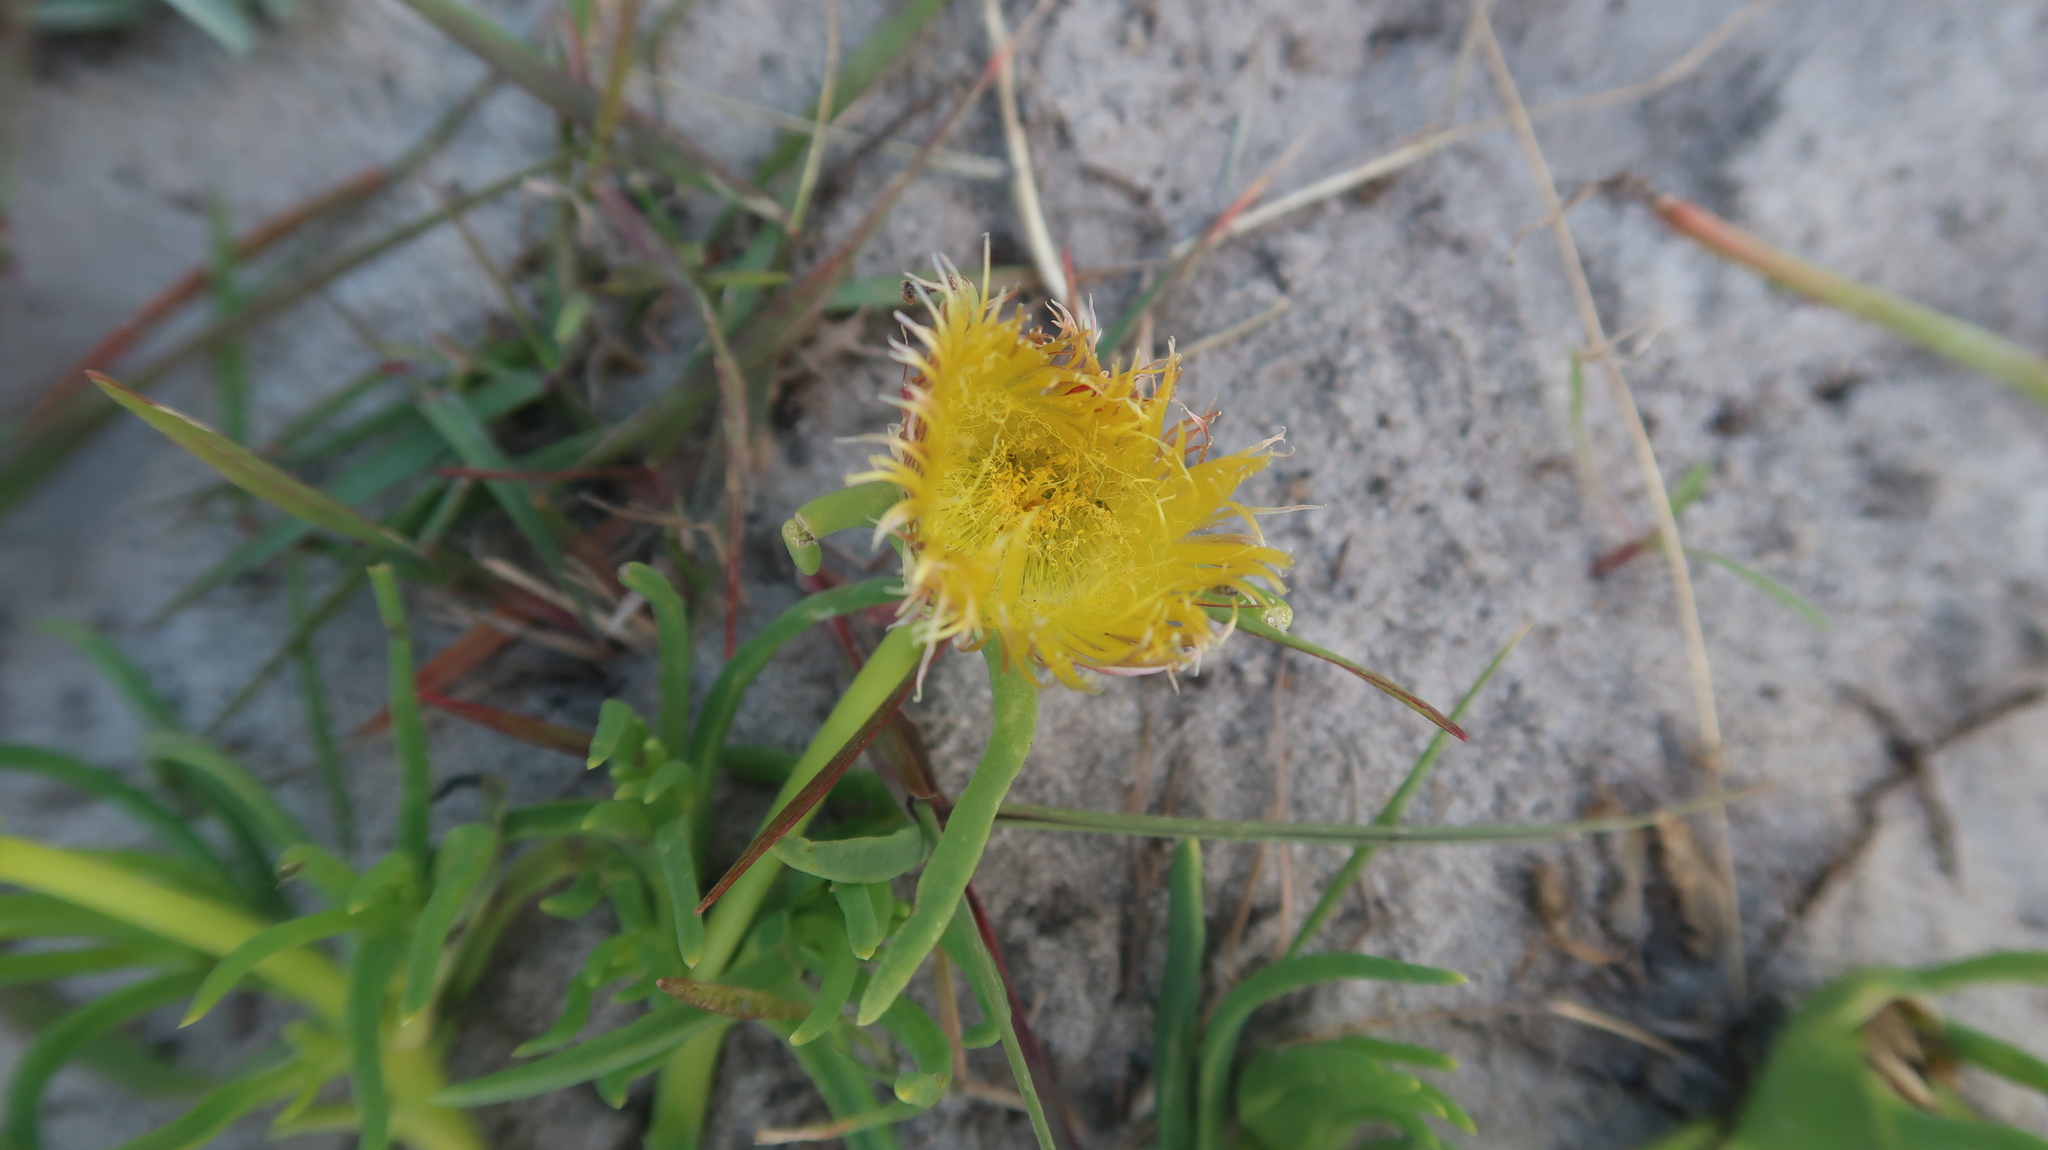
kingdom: Plantae
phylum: Tracheophyta
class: Magnoliopsida
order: Caryophyllales
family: Aizoaceae
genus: Conicosia
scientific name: Conicosia pugioniformis
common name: Narrow-leaved iceplant
